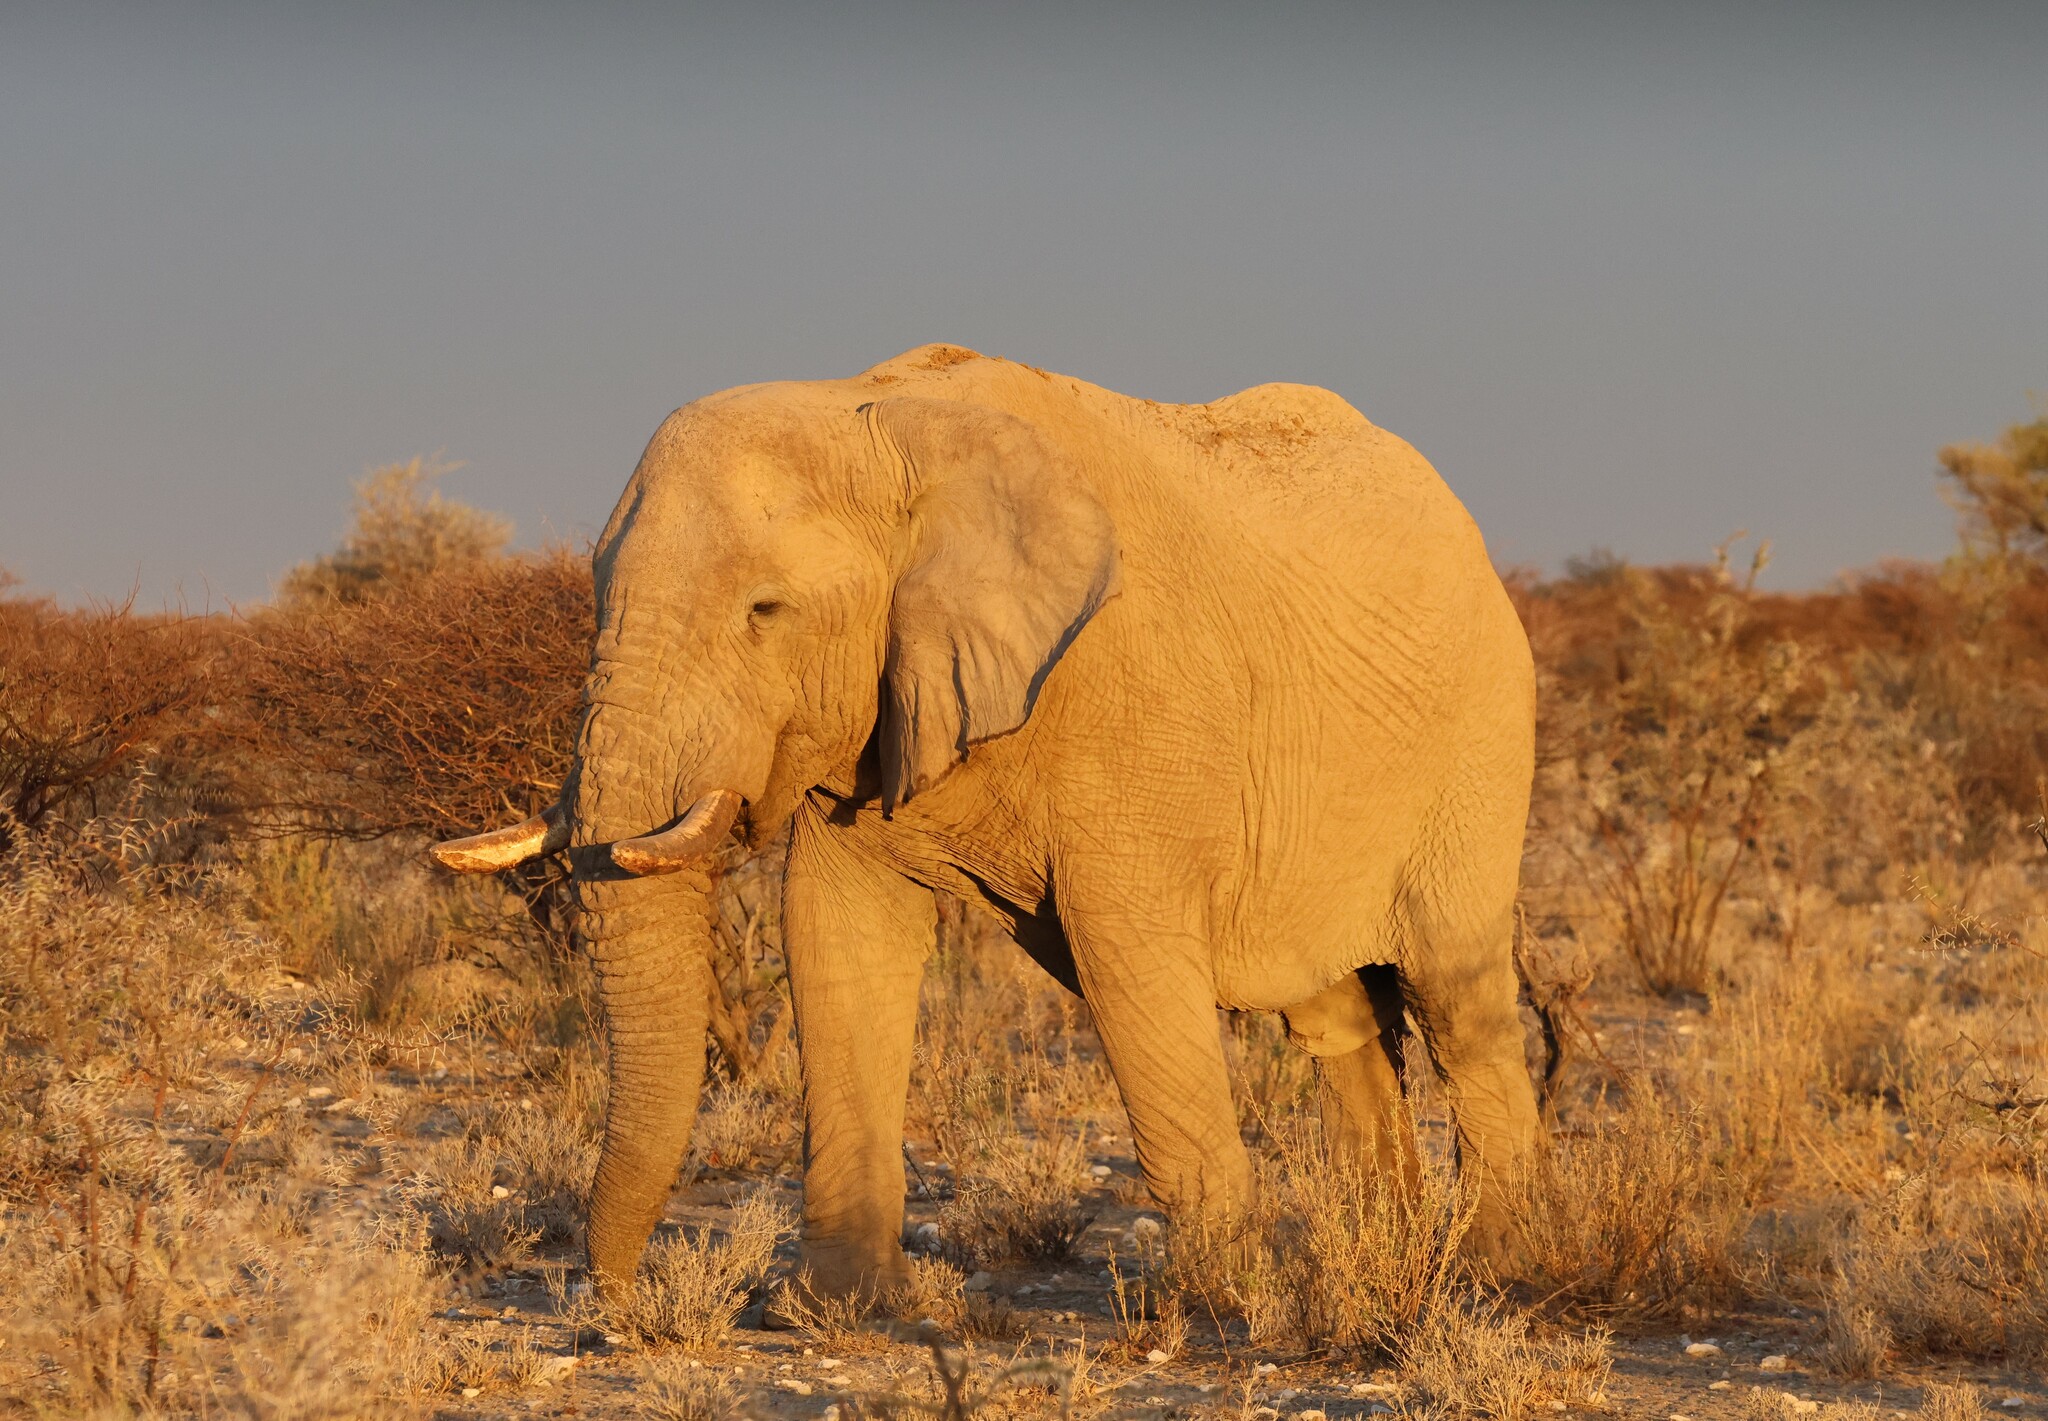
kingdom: Animalia
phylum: Chordata
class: Mammalia
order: Proboscidea
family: Elephantidae
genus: Loxodonta
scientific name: Loxodonta africana
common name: African elephant
